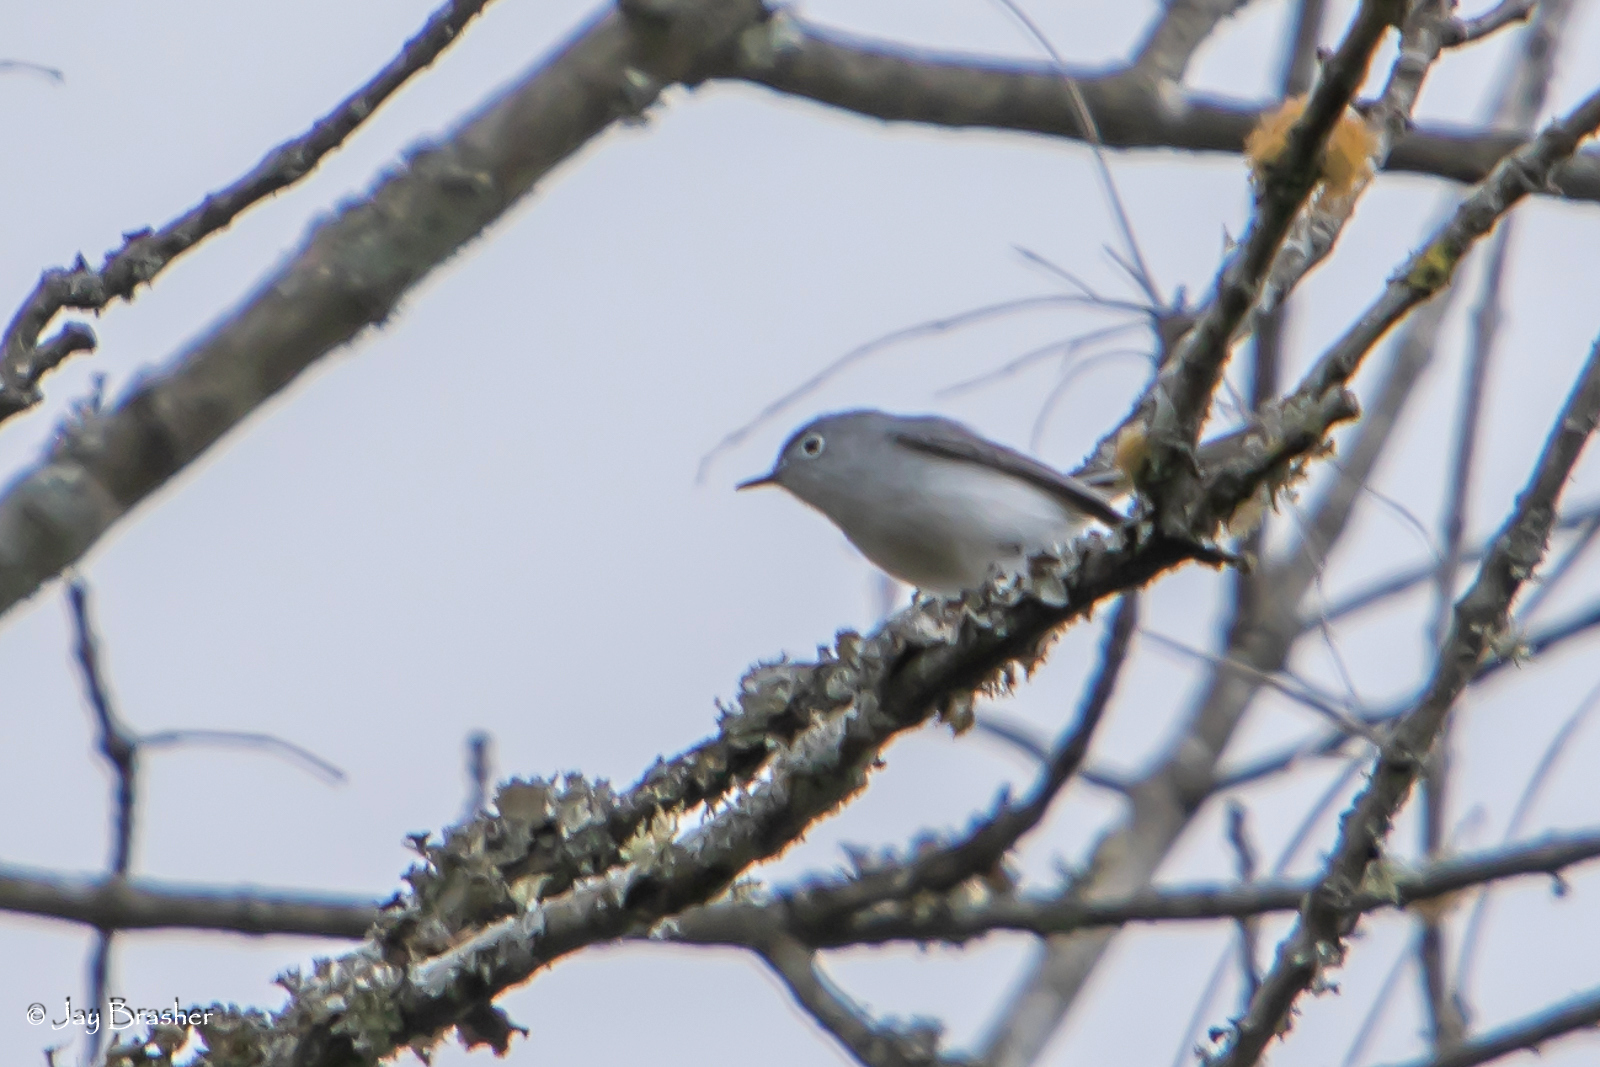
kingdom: Animalia
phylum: Chordata
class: Aves
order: Passeriformes
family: Polioptilidae
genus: Polioptila
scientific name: Polioptila caerulea
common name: Blue-gray gnatcatcher
